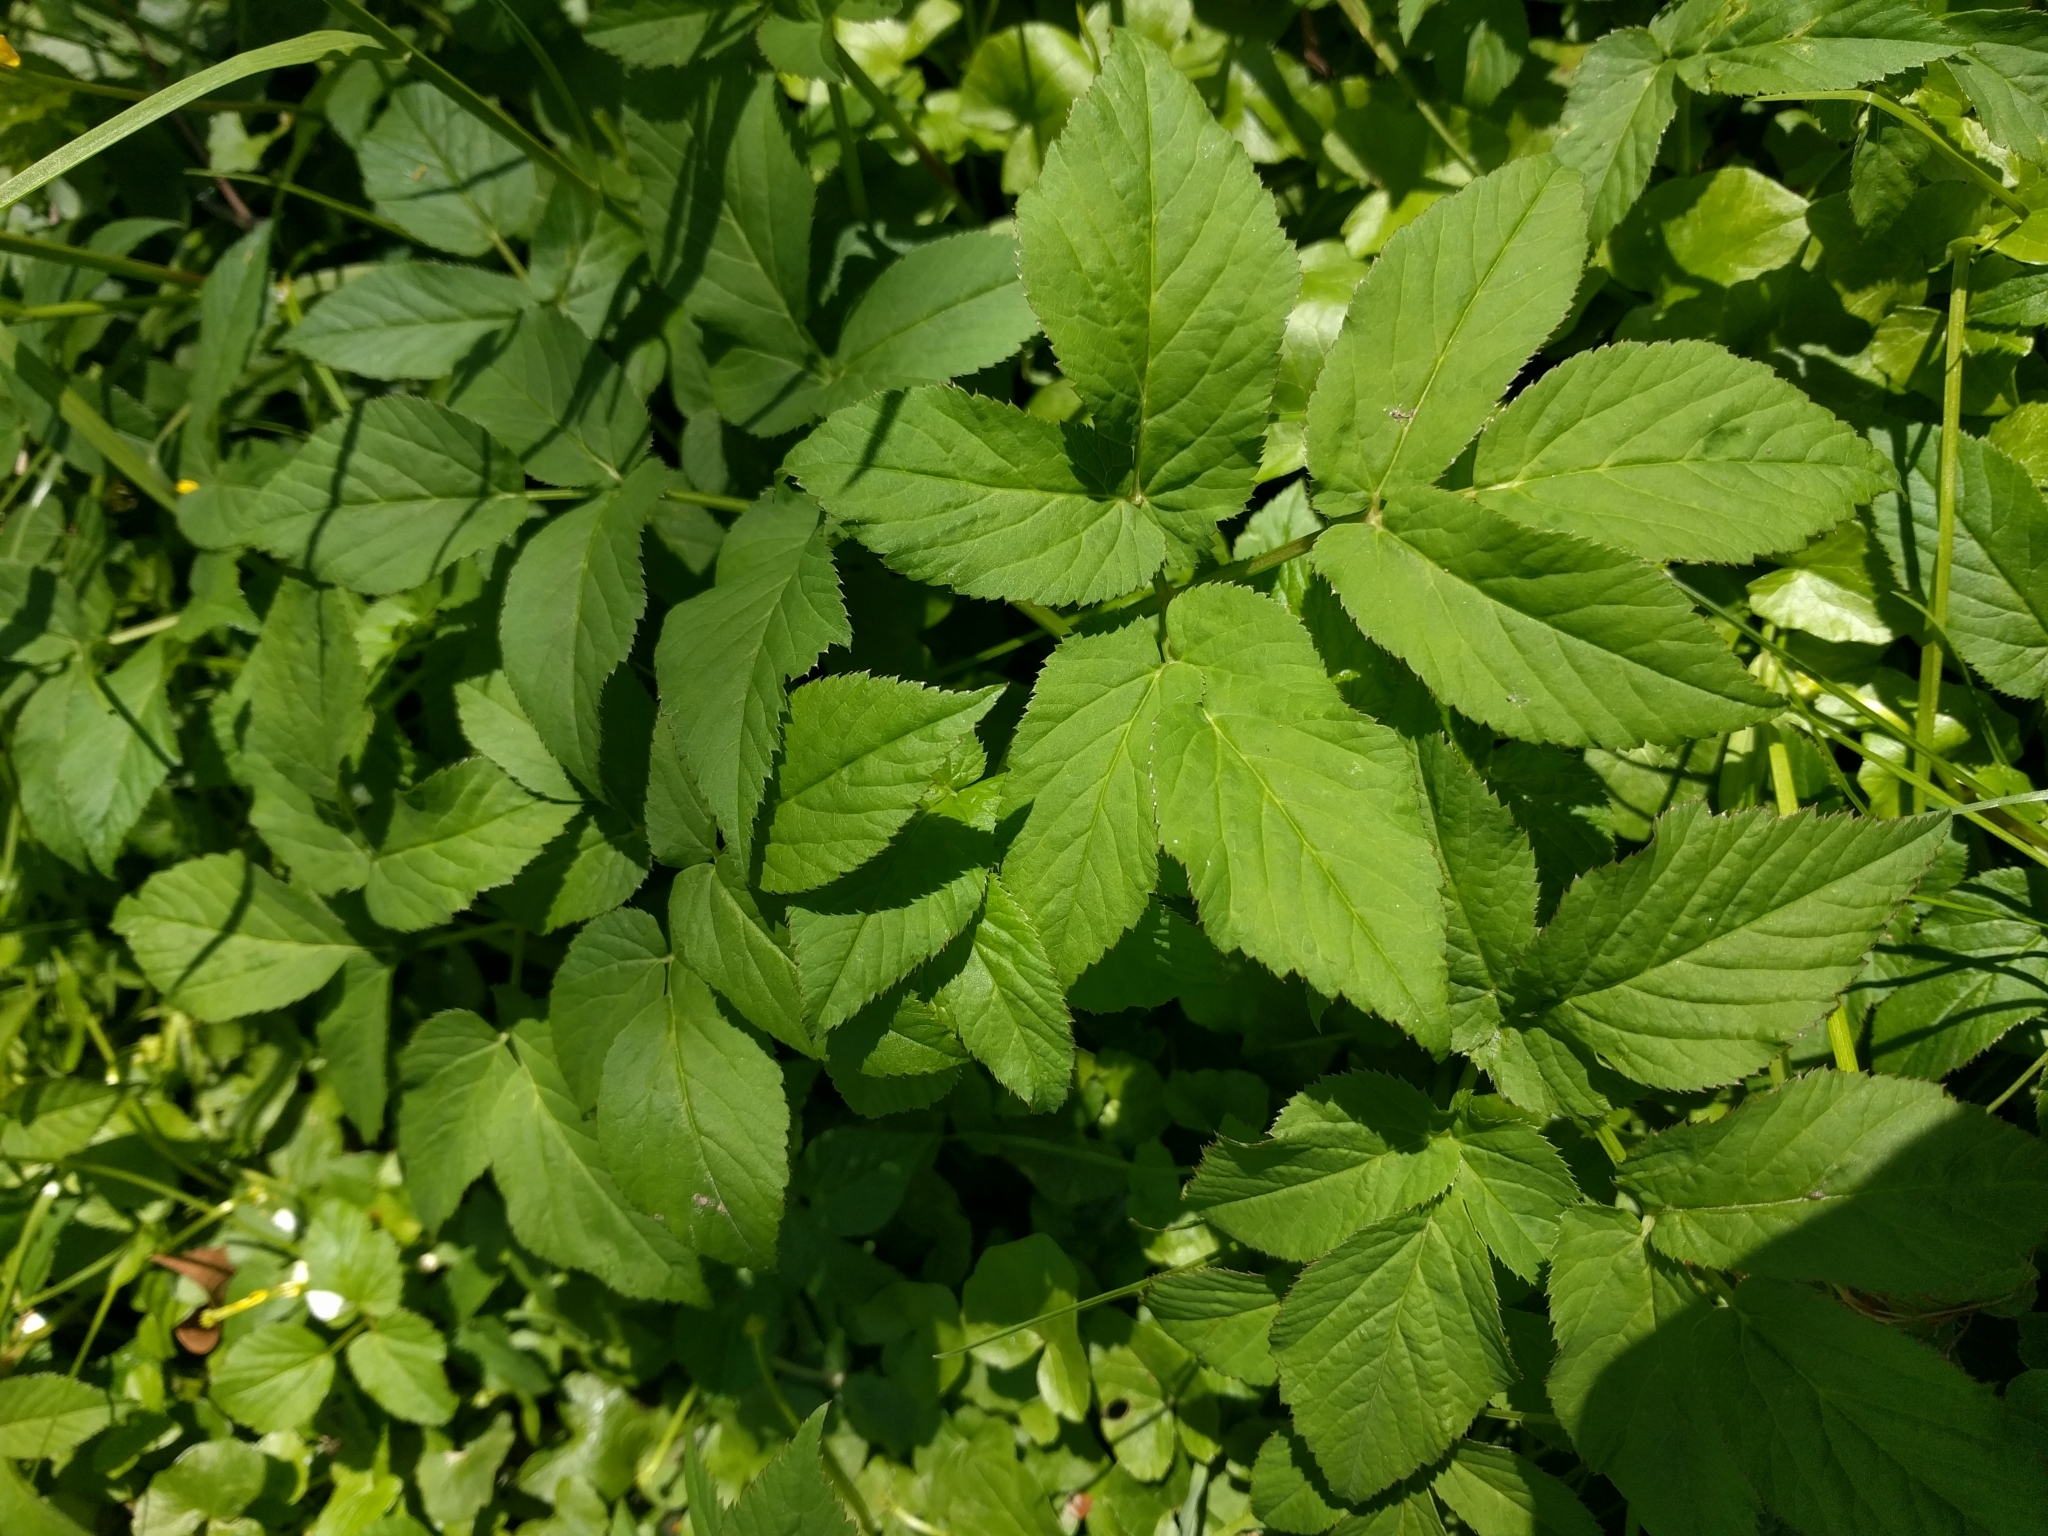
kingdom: Plantae
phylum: Tracheophyta
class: Magnoliopsida
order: Apiales
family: Apiaceae
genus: Aegopodium
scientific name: Aegopodium podagraria
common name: Ground-elder
